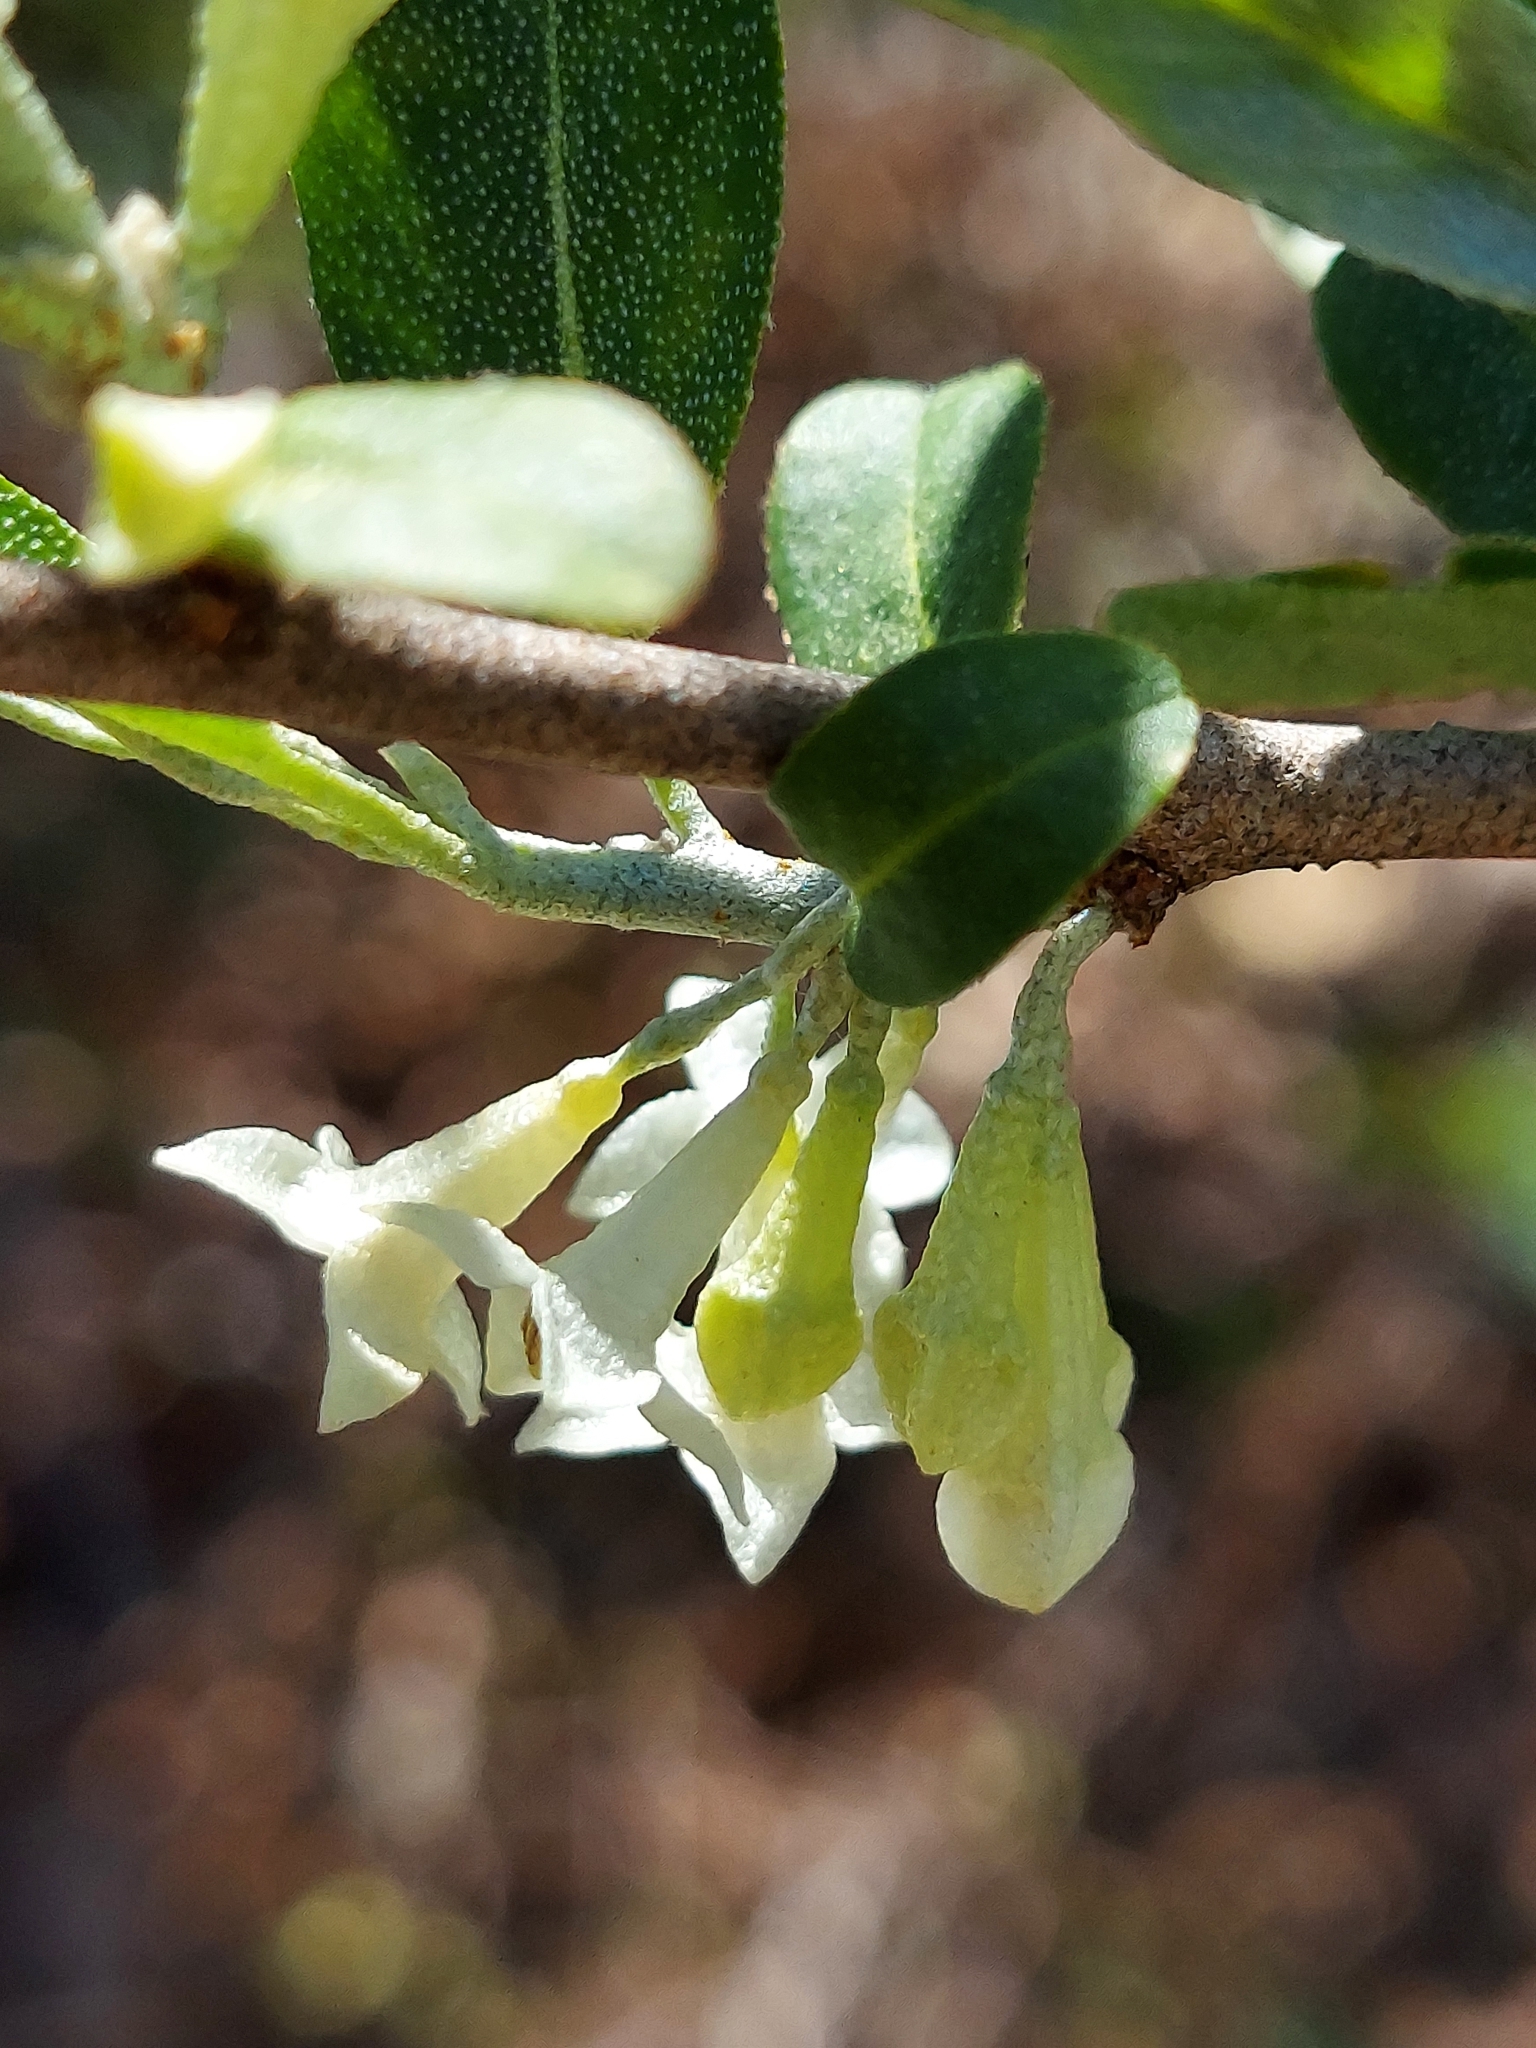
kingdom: Plantae
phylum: Tracheophyta
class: Magnoliopsida
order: Rosales
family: Elaeagnaceae
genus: Elaeagnus
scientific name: Elaeagnus umbellata
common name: Autumn olive
